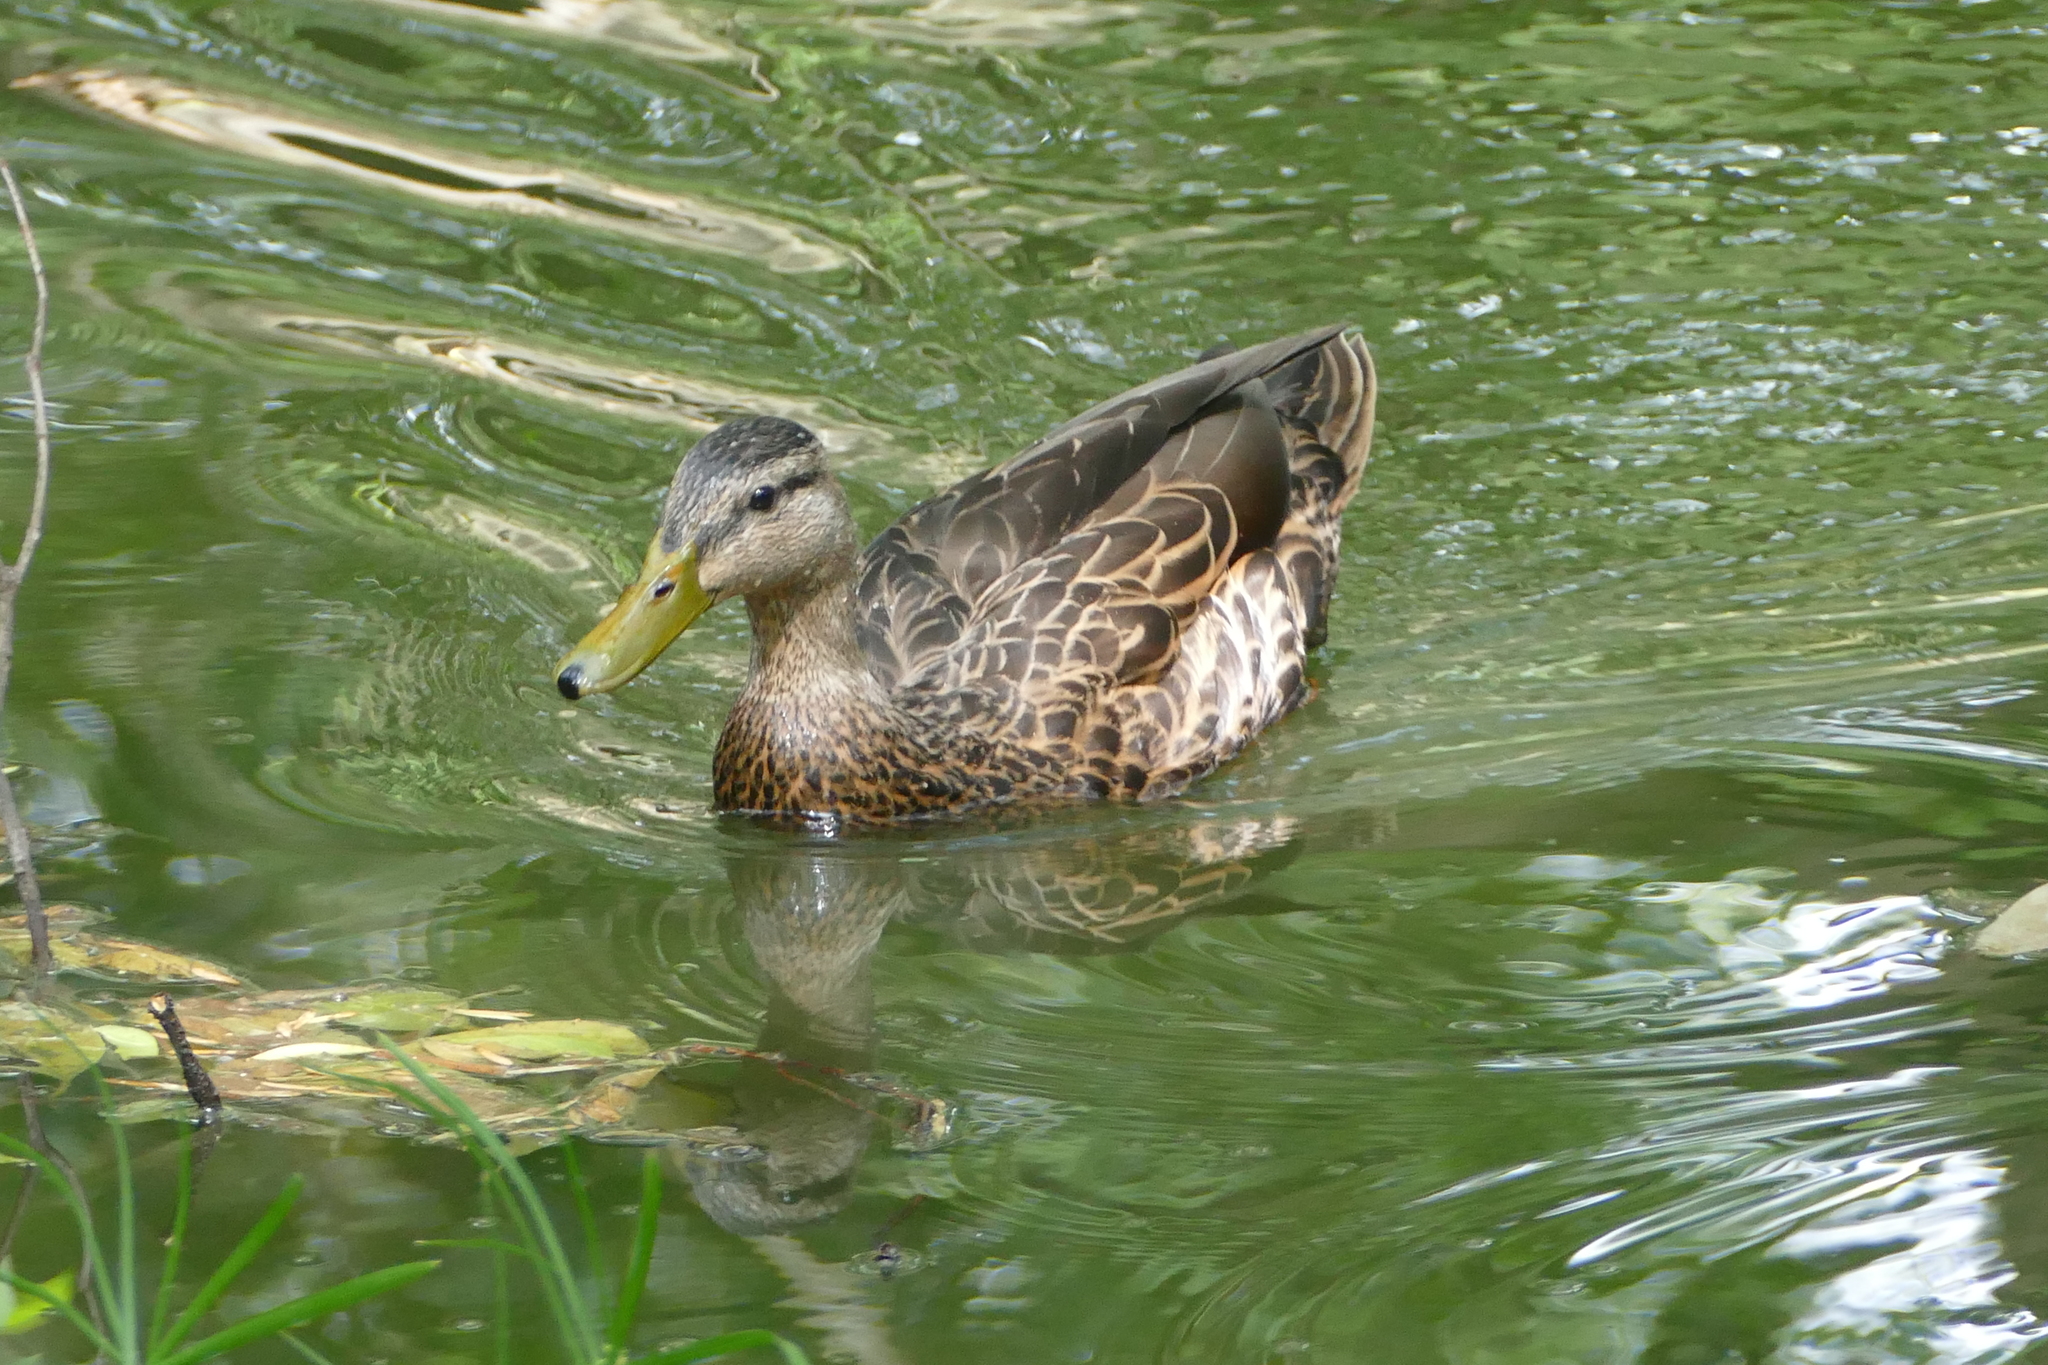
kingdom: Animalia
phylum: Chordata
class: Aves
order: Anseriformes
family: Anatidae
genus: Anas
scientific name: Anas diazi
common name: Mexican duck
